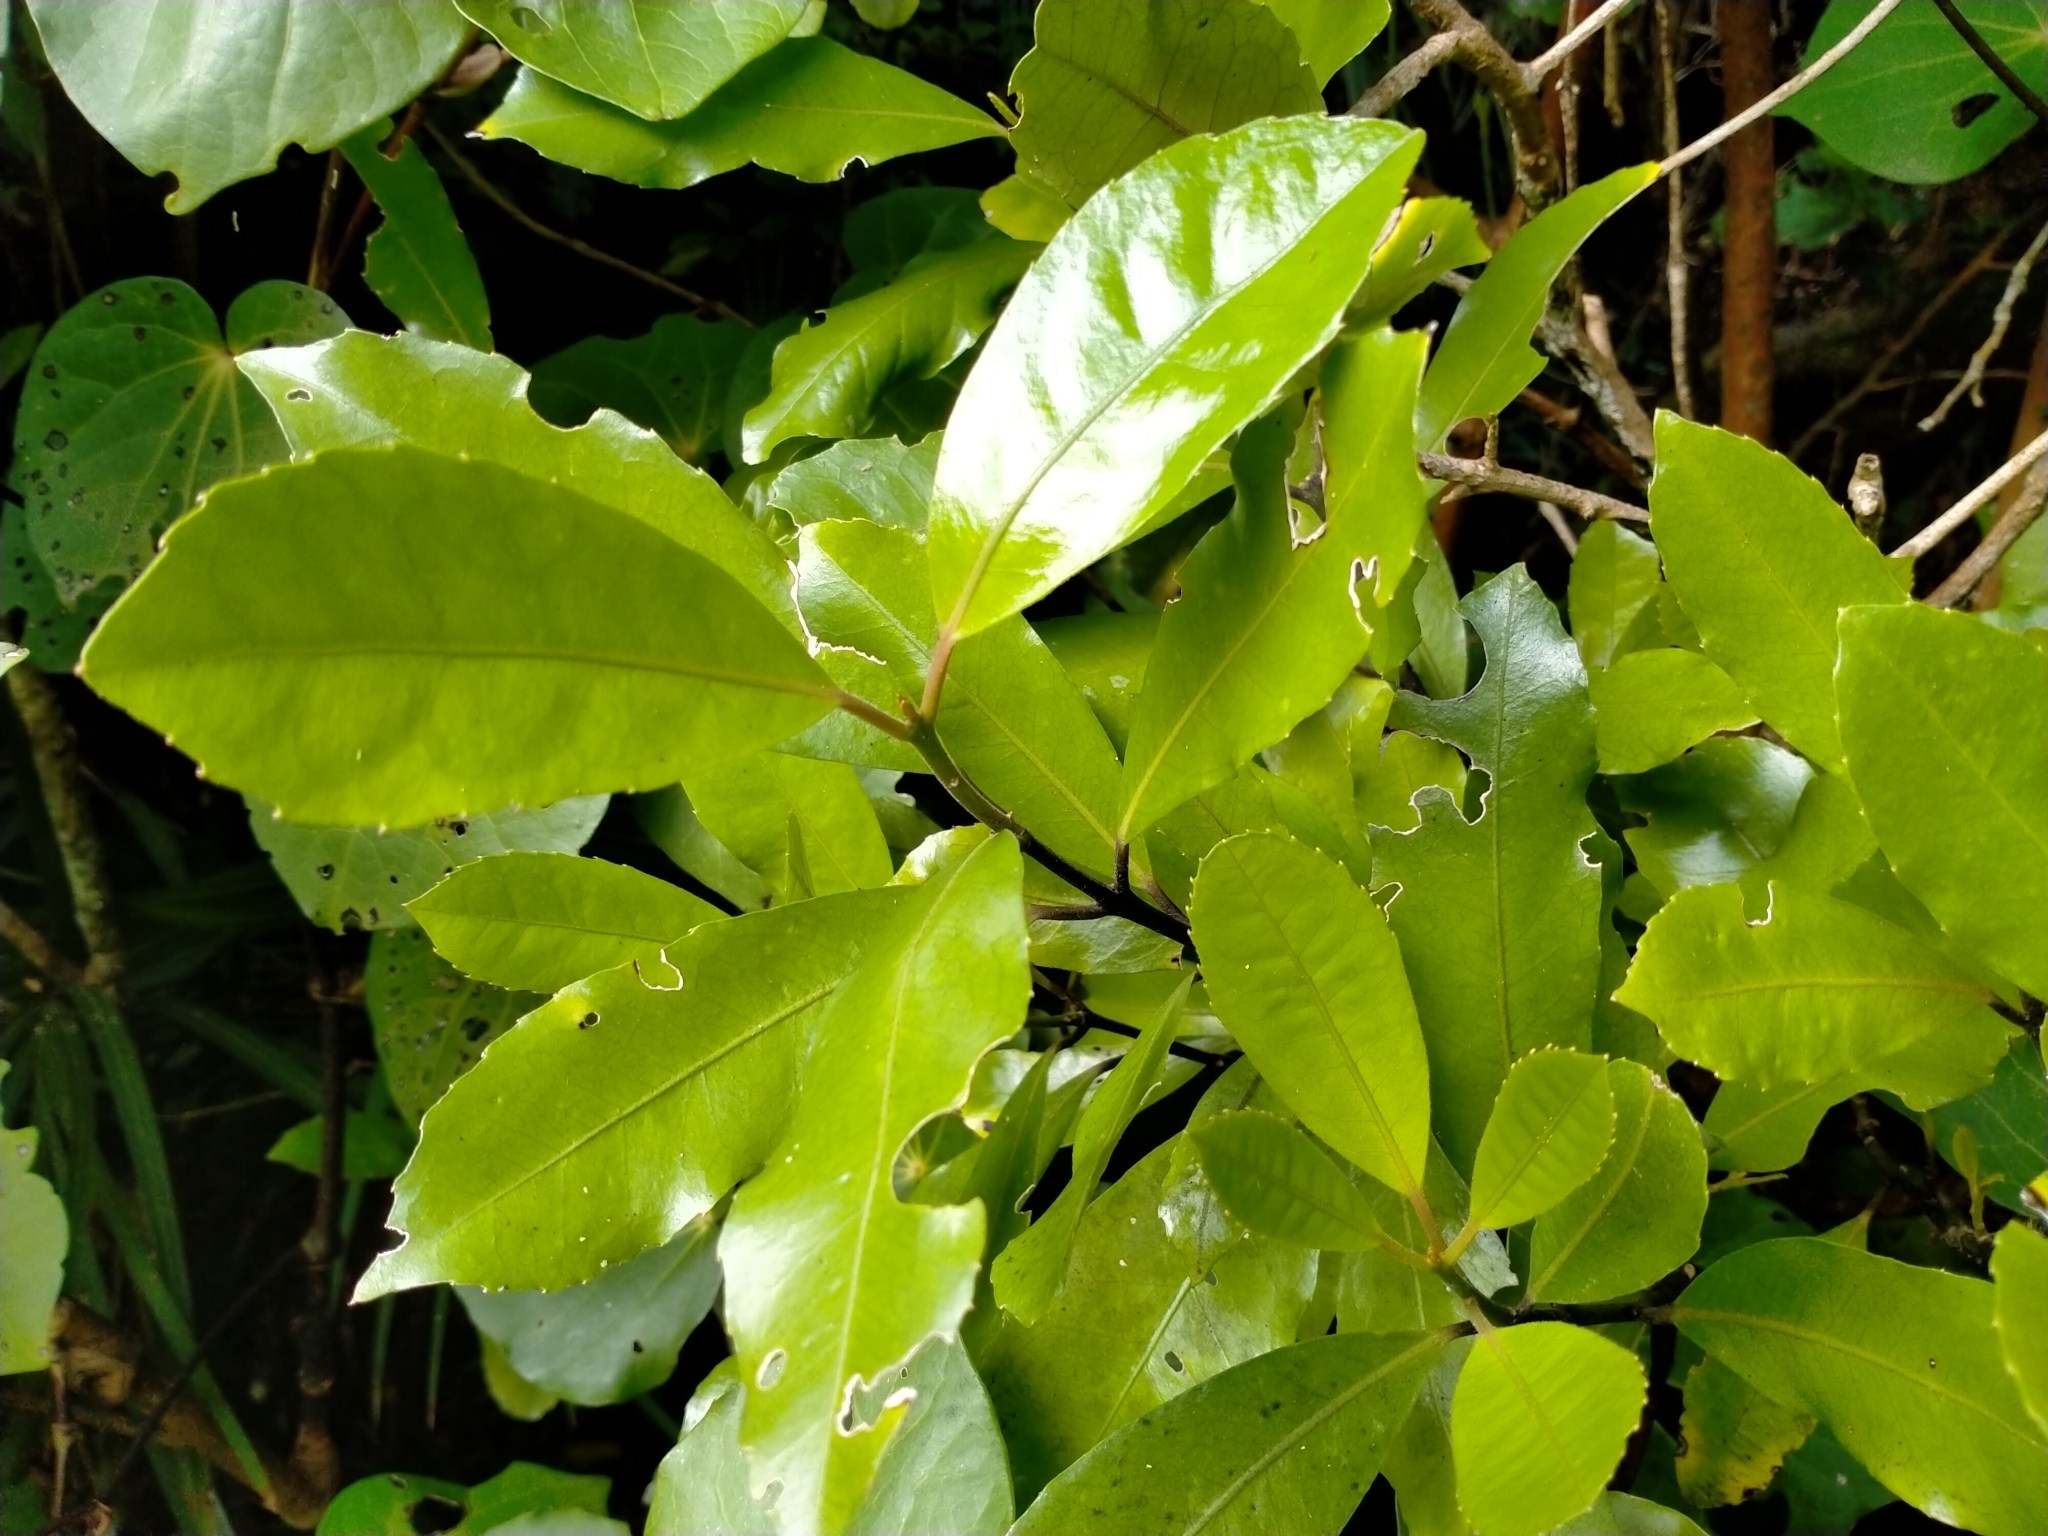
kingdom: Plantae
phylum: Tracheophyta
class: Magnoliopsida
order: Laurales
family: Monimiaceae
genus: Hedycarya
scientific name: Hedycarya arborea
